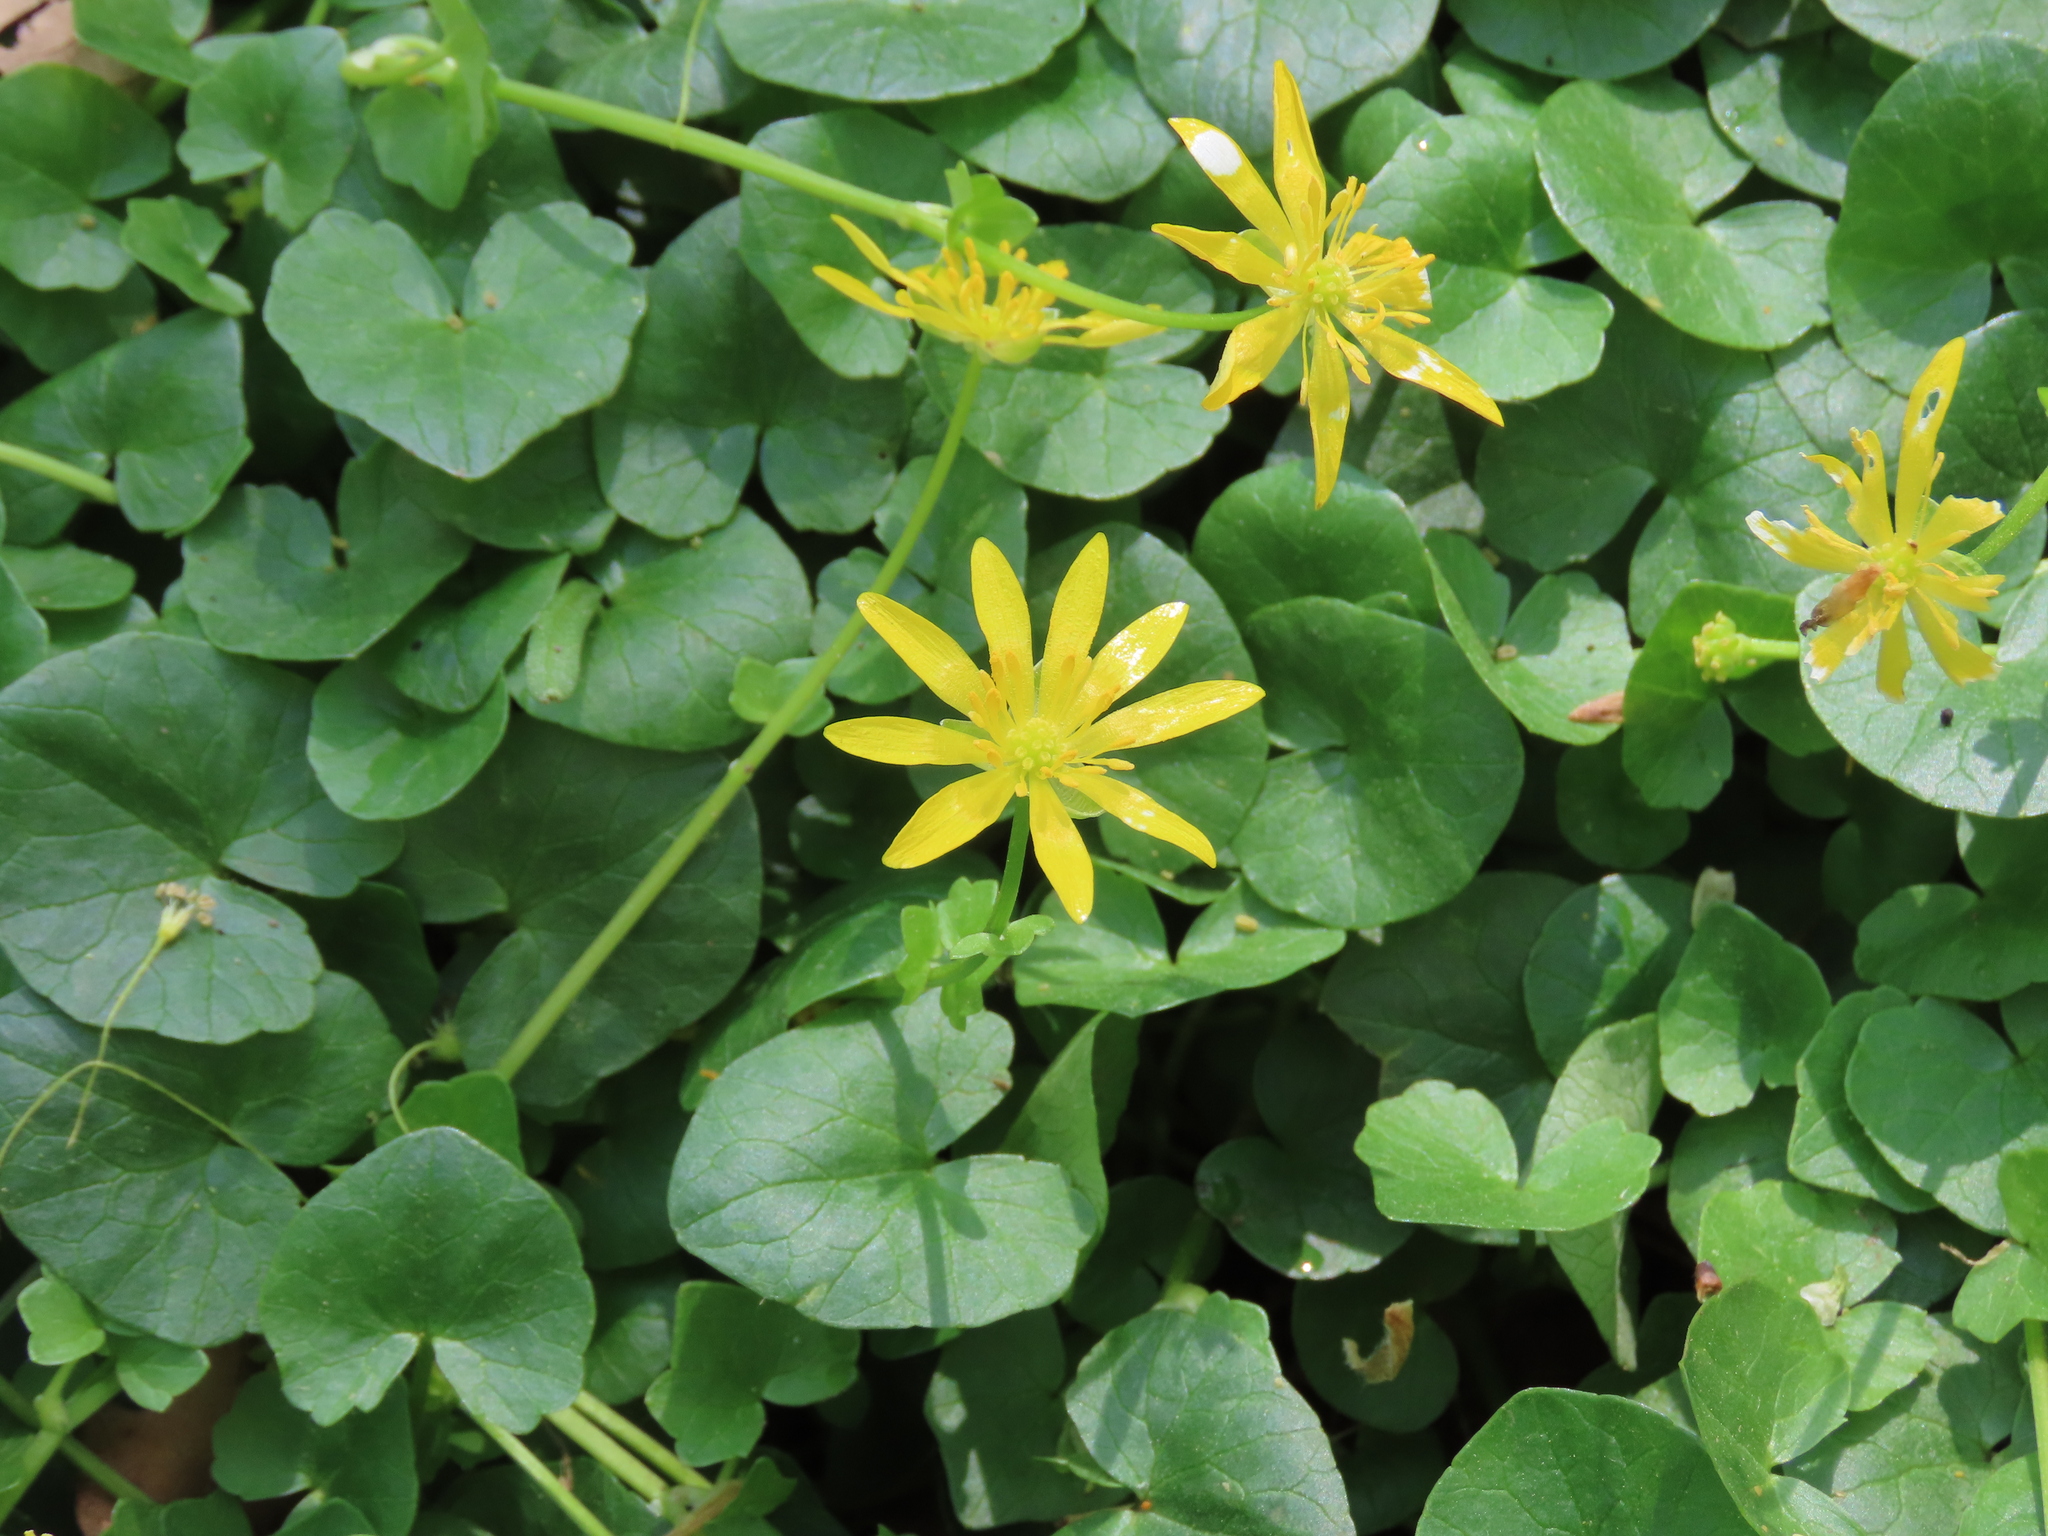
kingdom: Plantae
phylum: Tracheophyta
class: Magnoliopsida
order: Ranunculales
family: Ranunculaceae
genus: Ficaria
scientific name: Ficaria verna
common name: Lesser celandine
